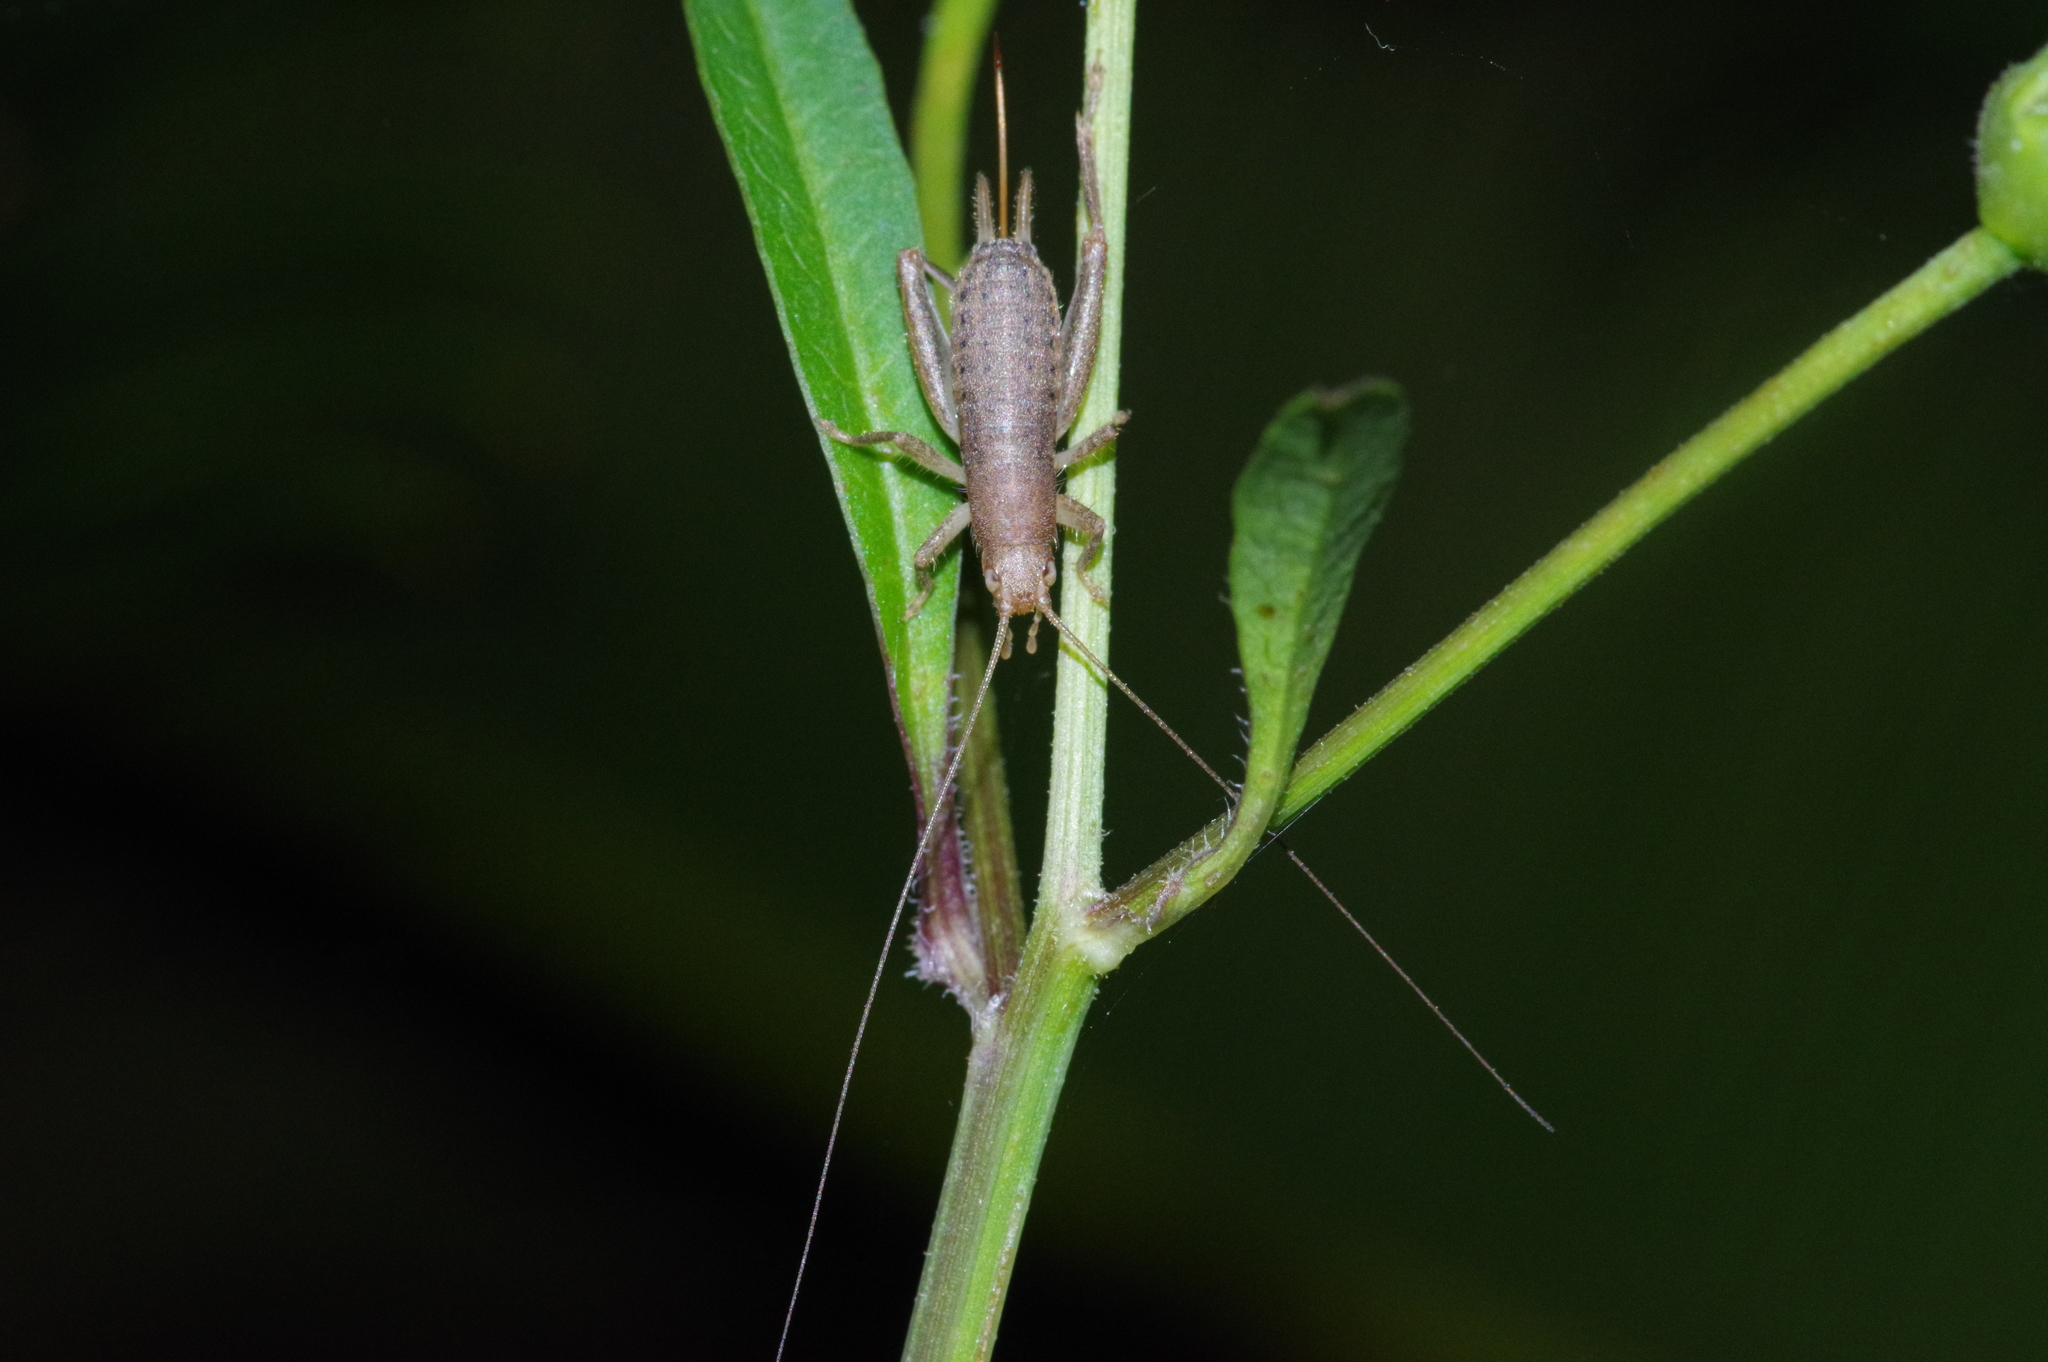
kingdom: Animalia
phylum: Arthropoda
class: Insecta
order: Orthoptera
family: Mogoplistidae
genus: Ornebius
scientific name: Ornebius bimaculatus
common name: Cricket
